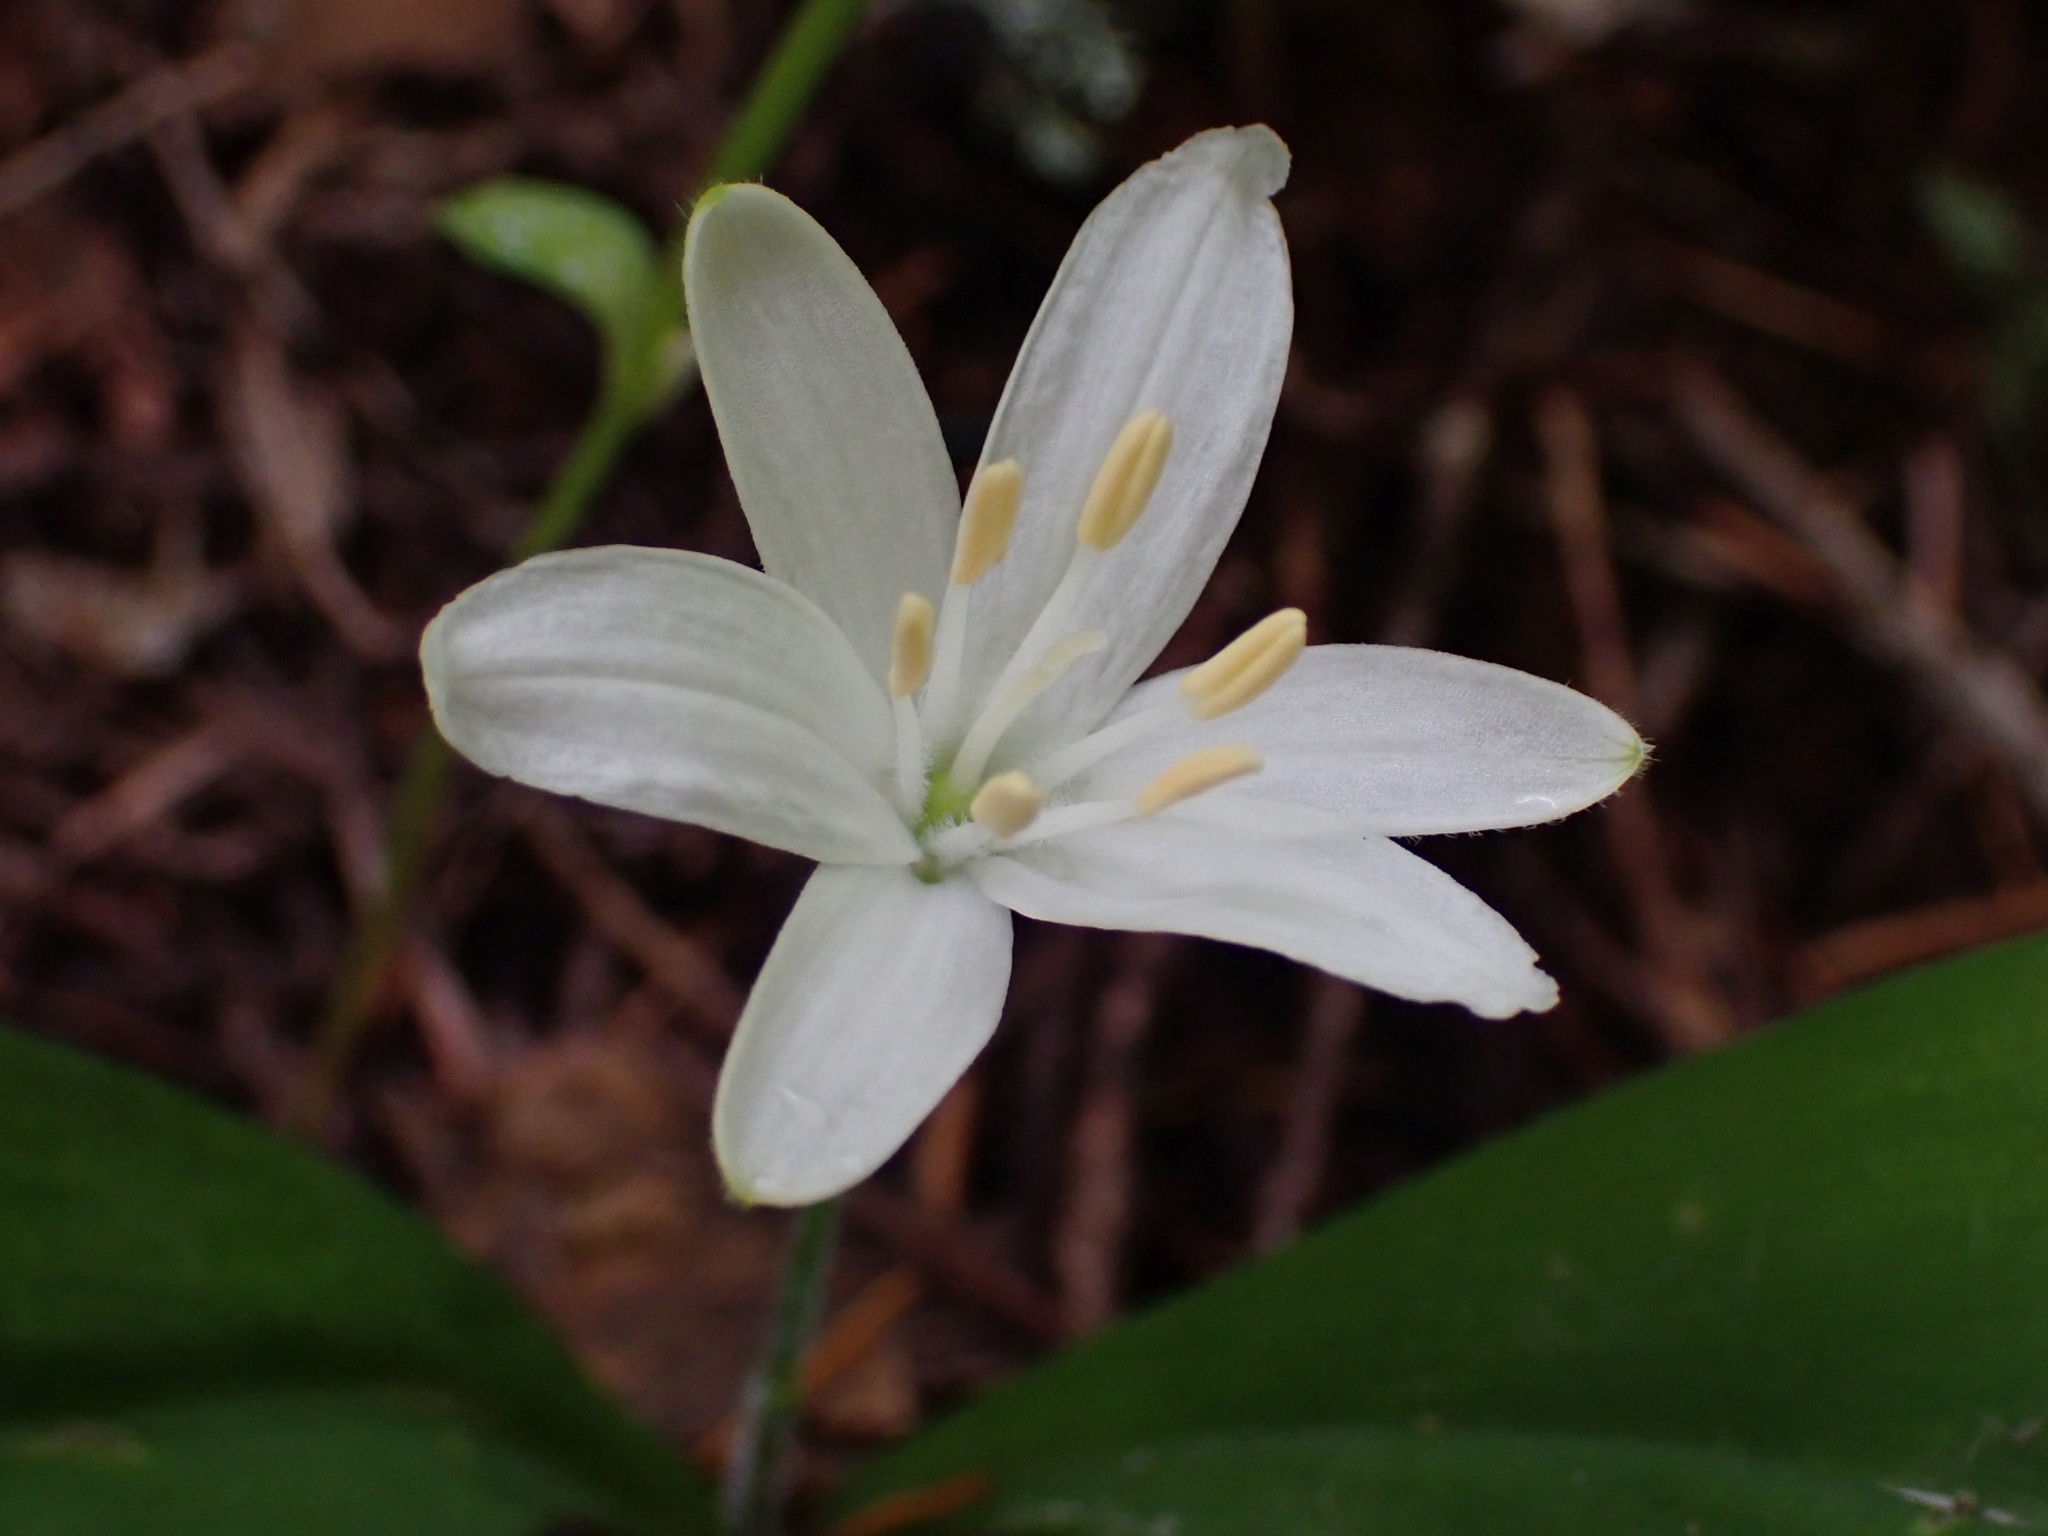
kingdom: Plantae
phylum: Tracheophyta
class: Liliopsida
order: Liliales
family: Liliaceae
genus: Clintonia
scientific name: Clintonia uniflora
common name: Queen's cup
